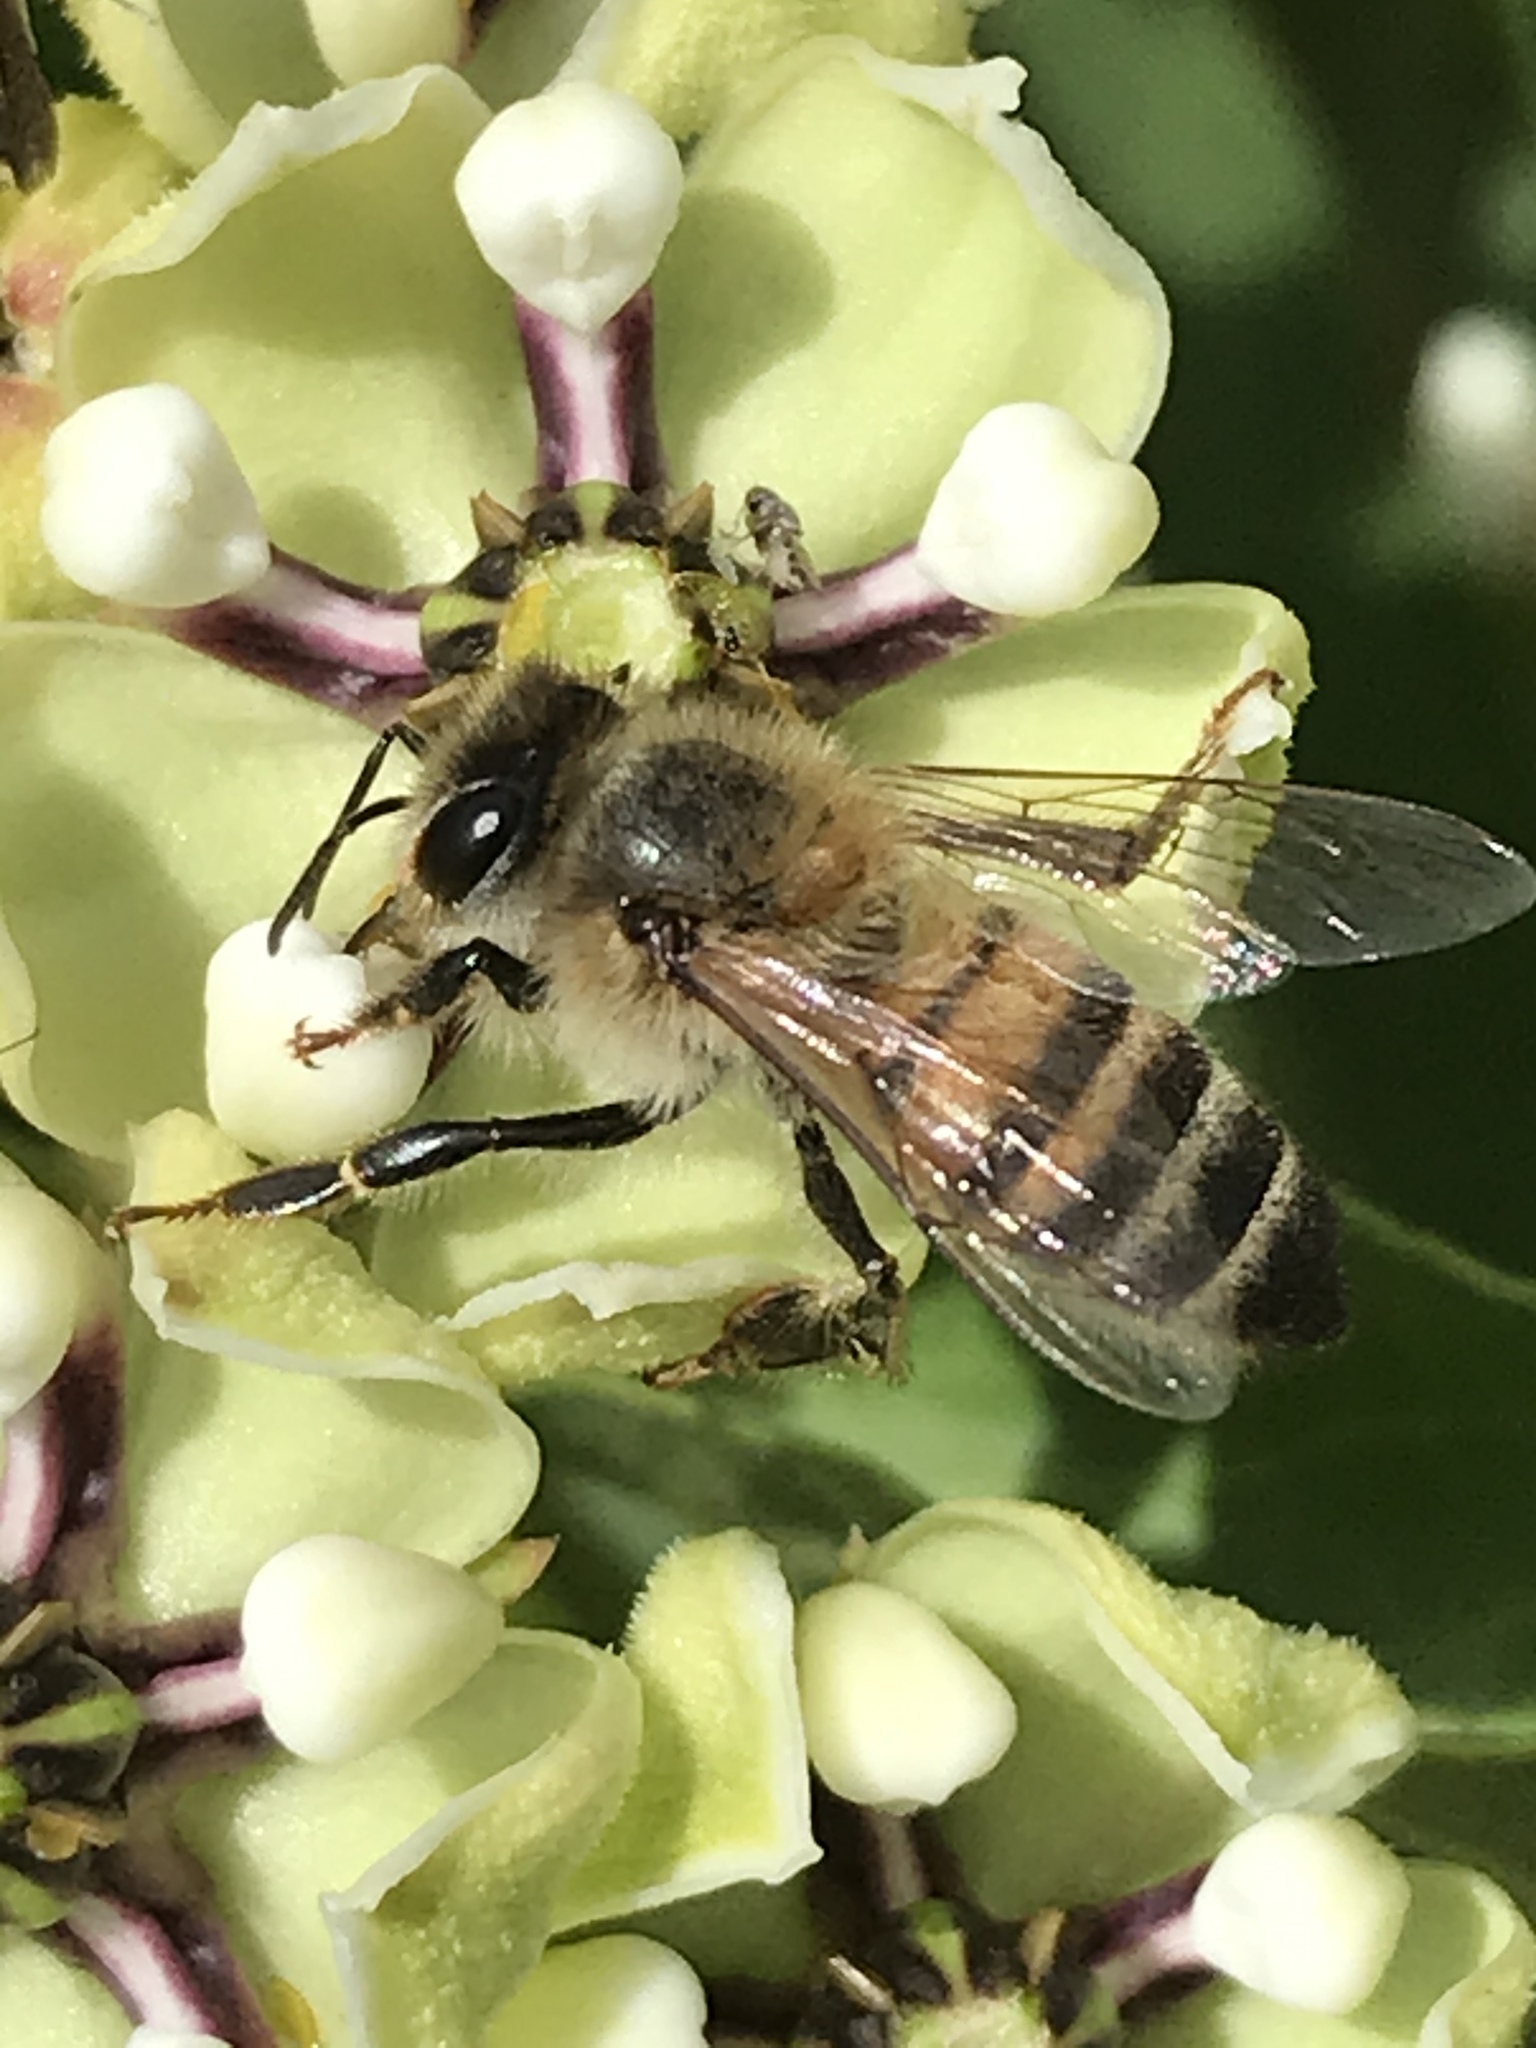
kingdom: Animalia
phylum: Arthropoda
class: Insecta
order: Hymenoptera
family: Apidae
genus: Apis
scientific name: Apis mellifera
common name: Honey bee
